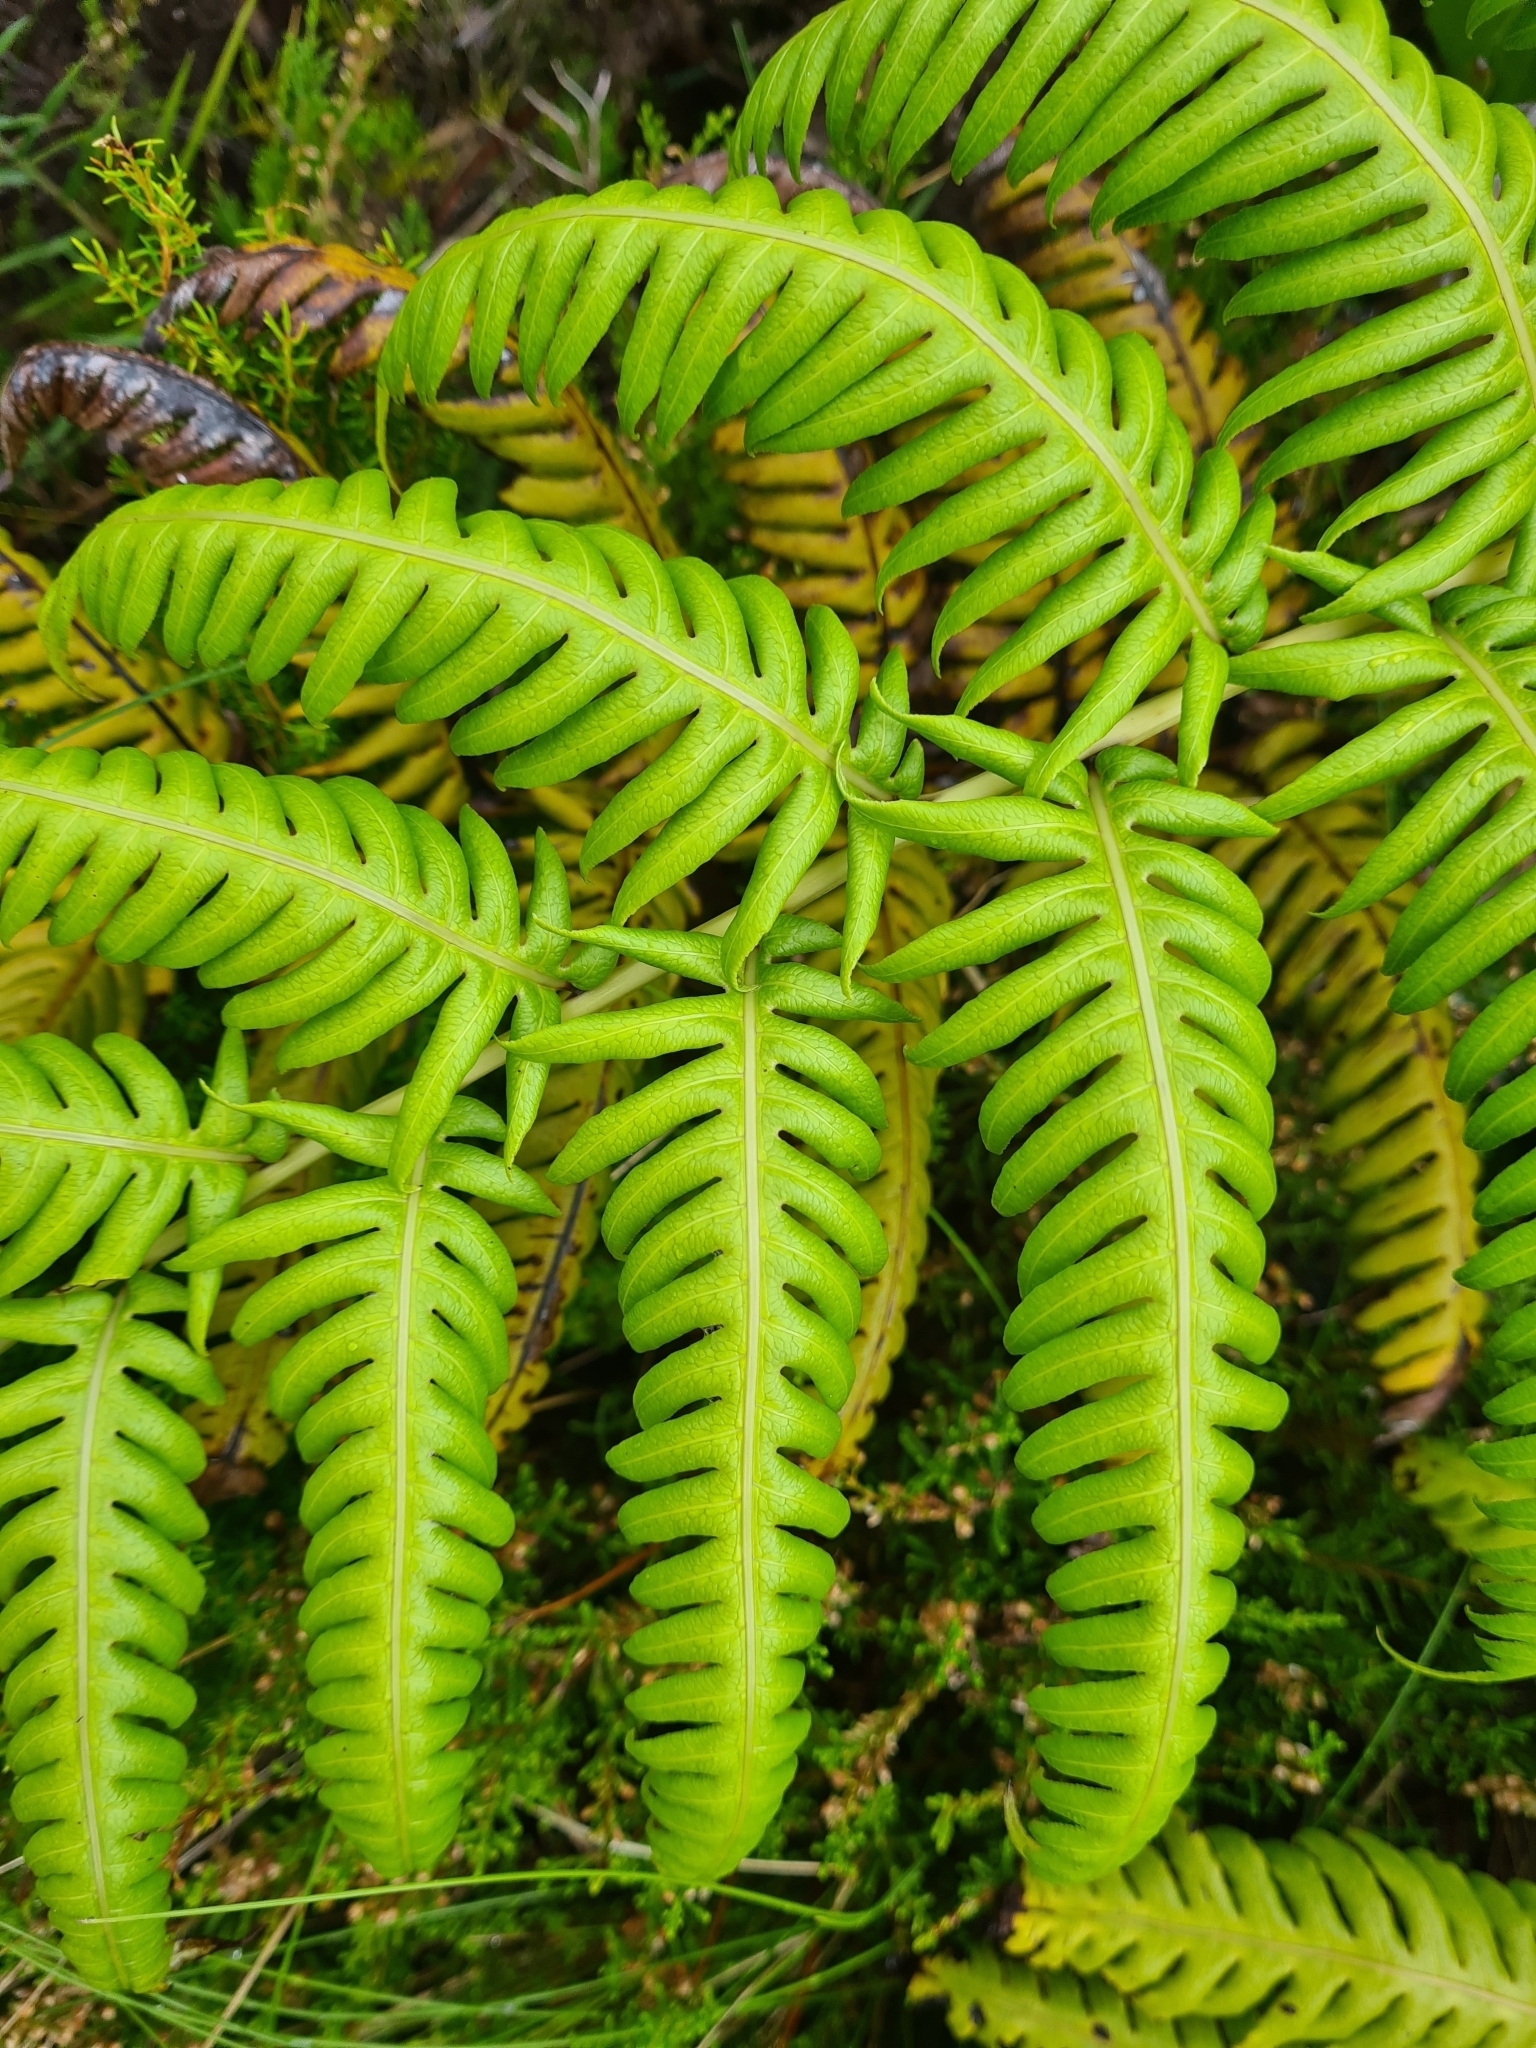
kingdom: Plantae
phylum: Tracheophyta
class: Polypodiopsida
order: Polypodiales
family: Blechnaceae
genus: Woodwardia
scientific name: Woodwardia radicans
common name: Rooting chainfern
